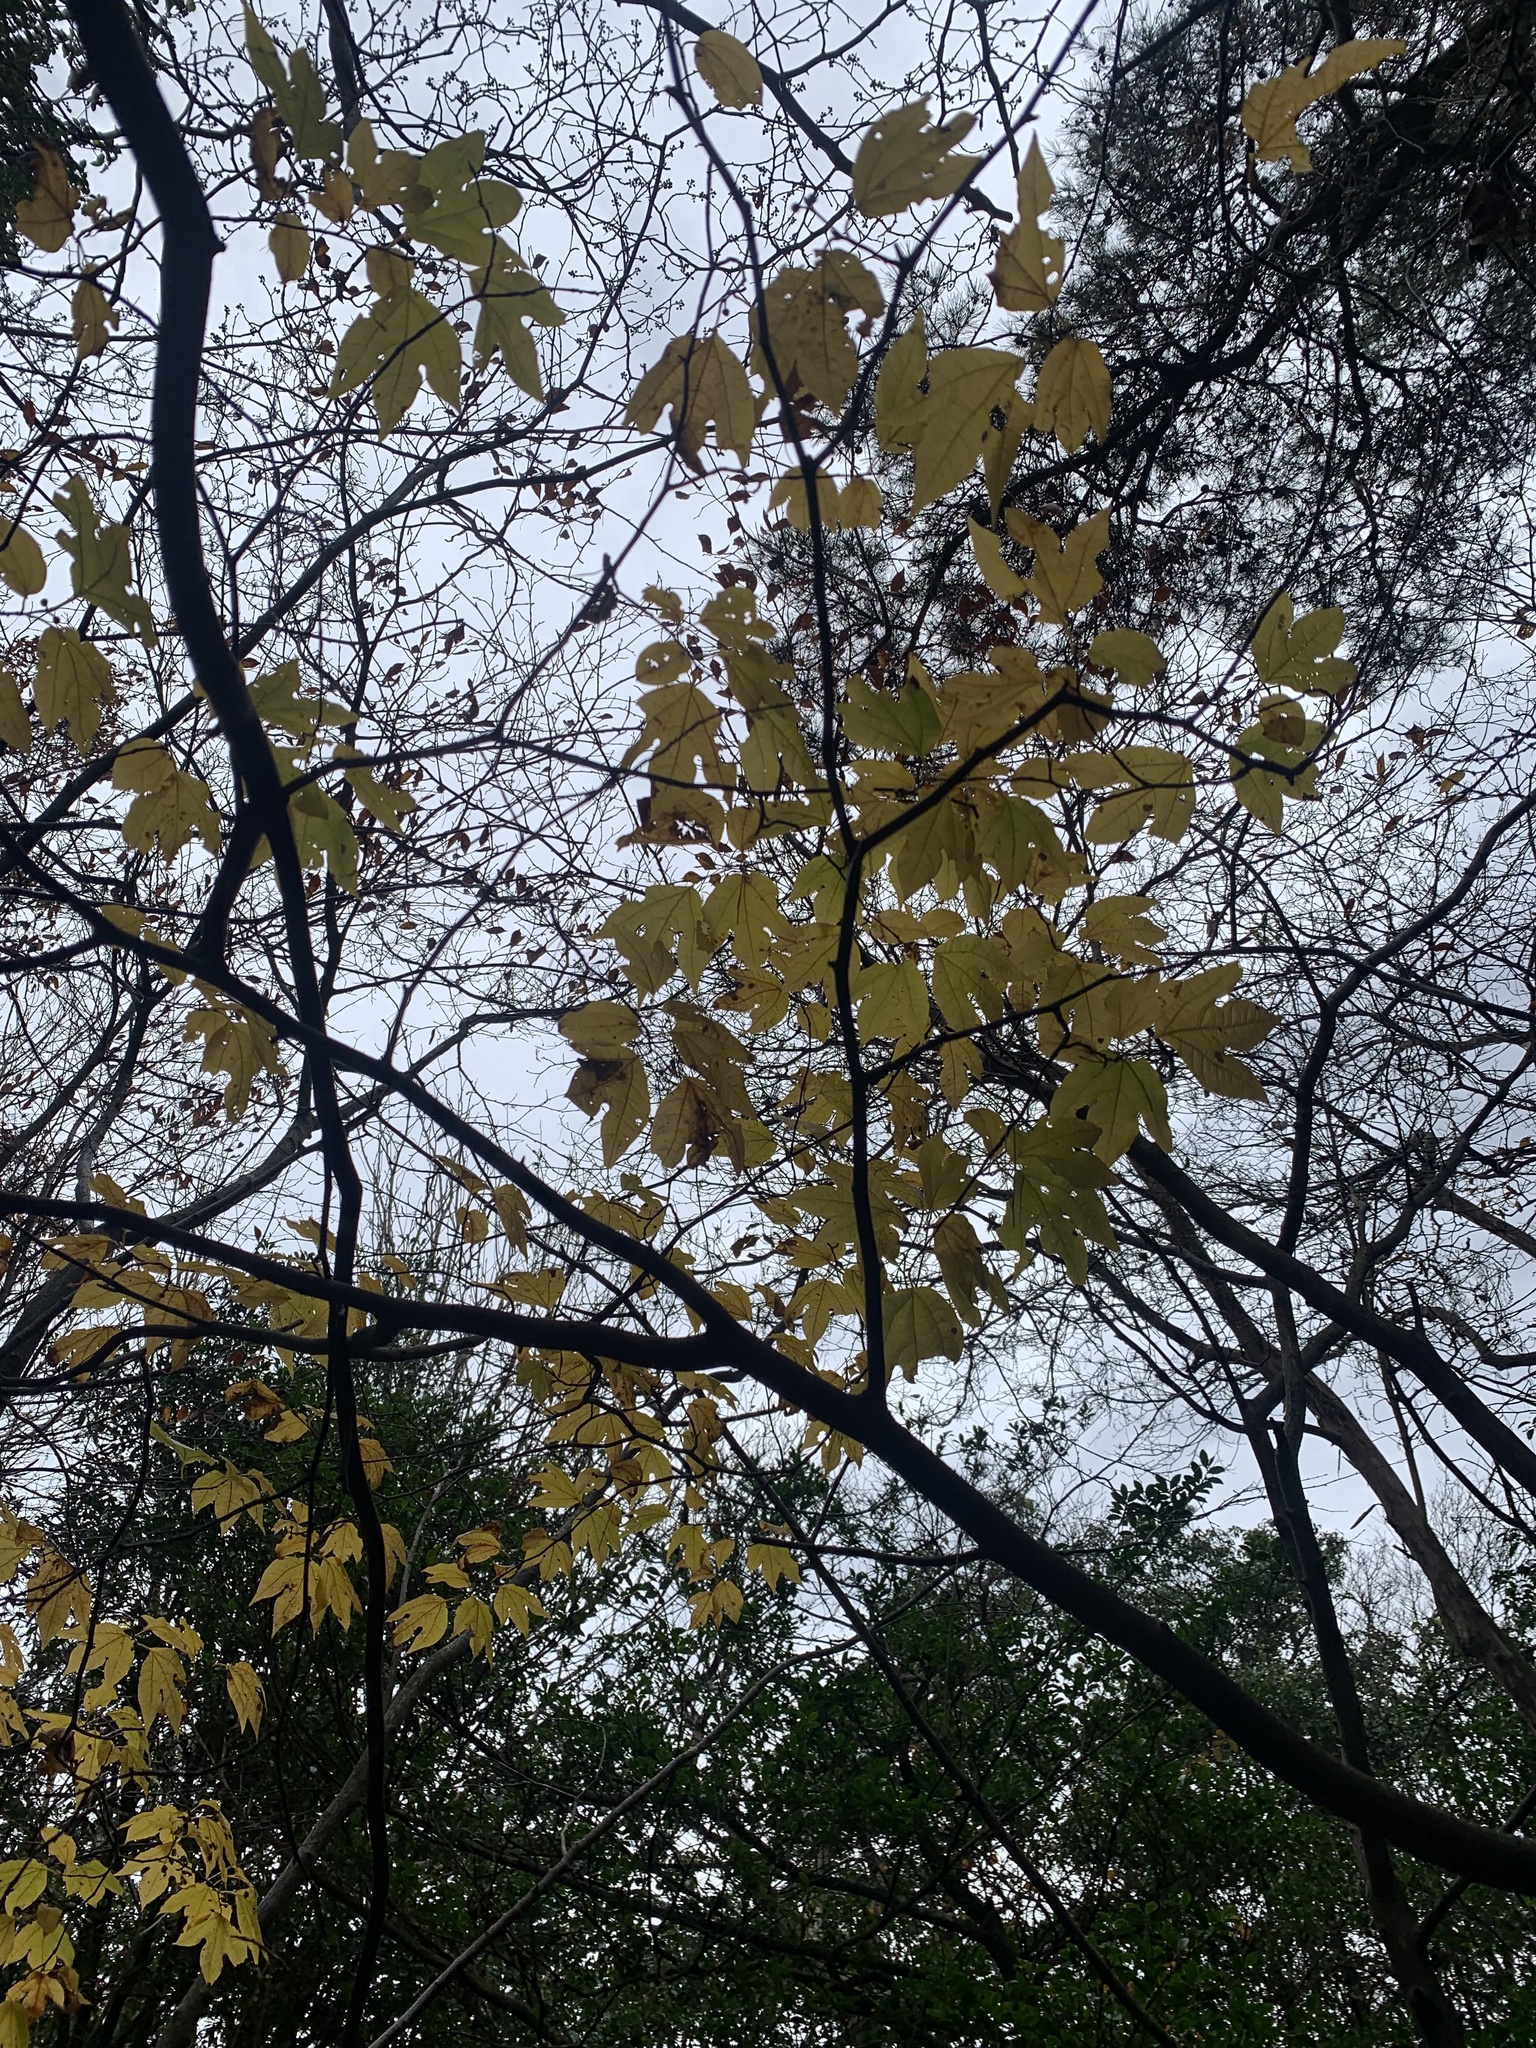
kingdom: Plantae
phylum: Tracheophyta
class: Magnoliopsida
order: Laurales
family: Lauraceae
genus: Lindera
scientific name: Lindera triloba
